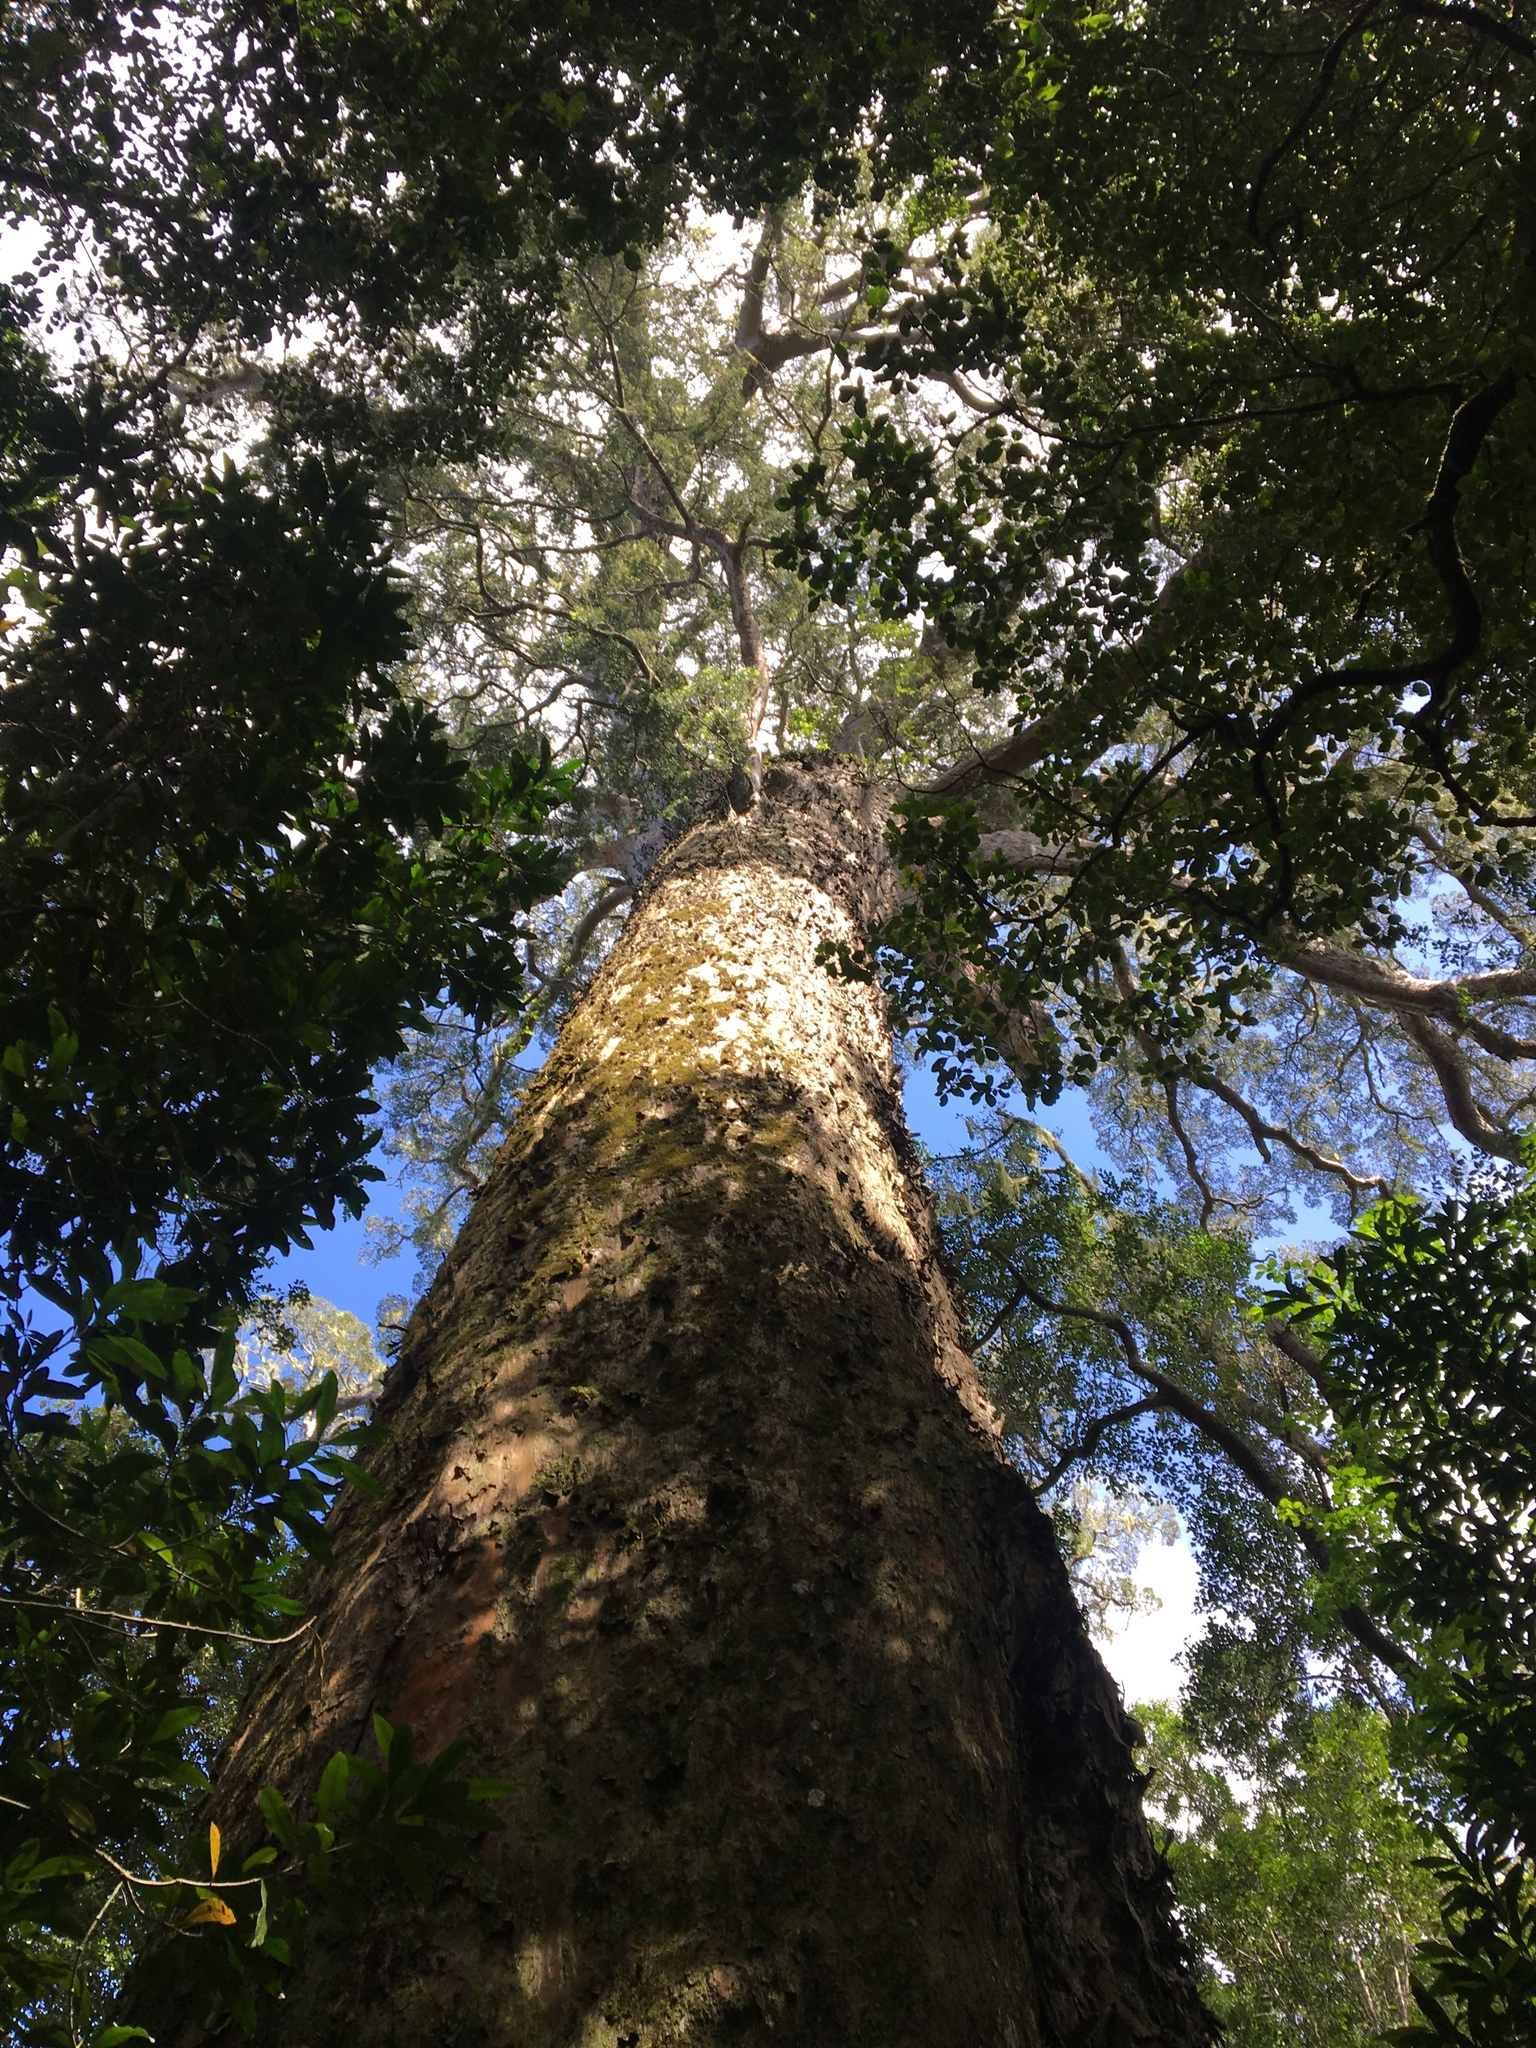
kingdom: Plantae
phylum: Tracheophyta
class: Pinopsida
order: Pinales
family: Podocarpaceae
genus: Afrocarpus
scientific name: Afrocarpus falcatus
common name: Bastard yellowwood
